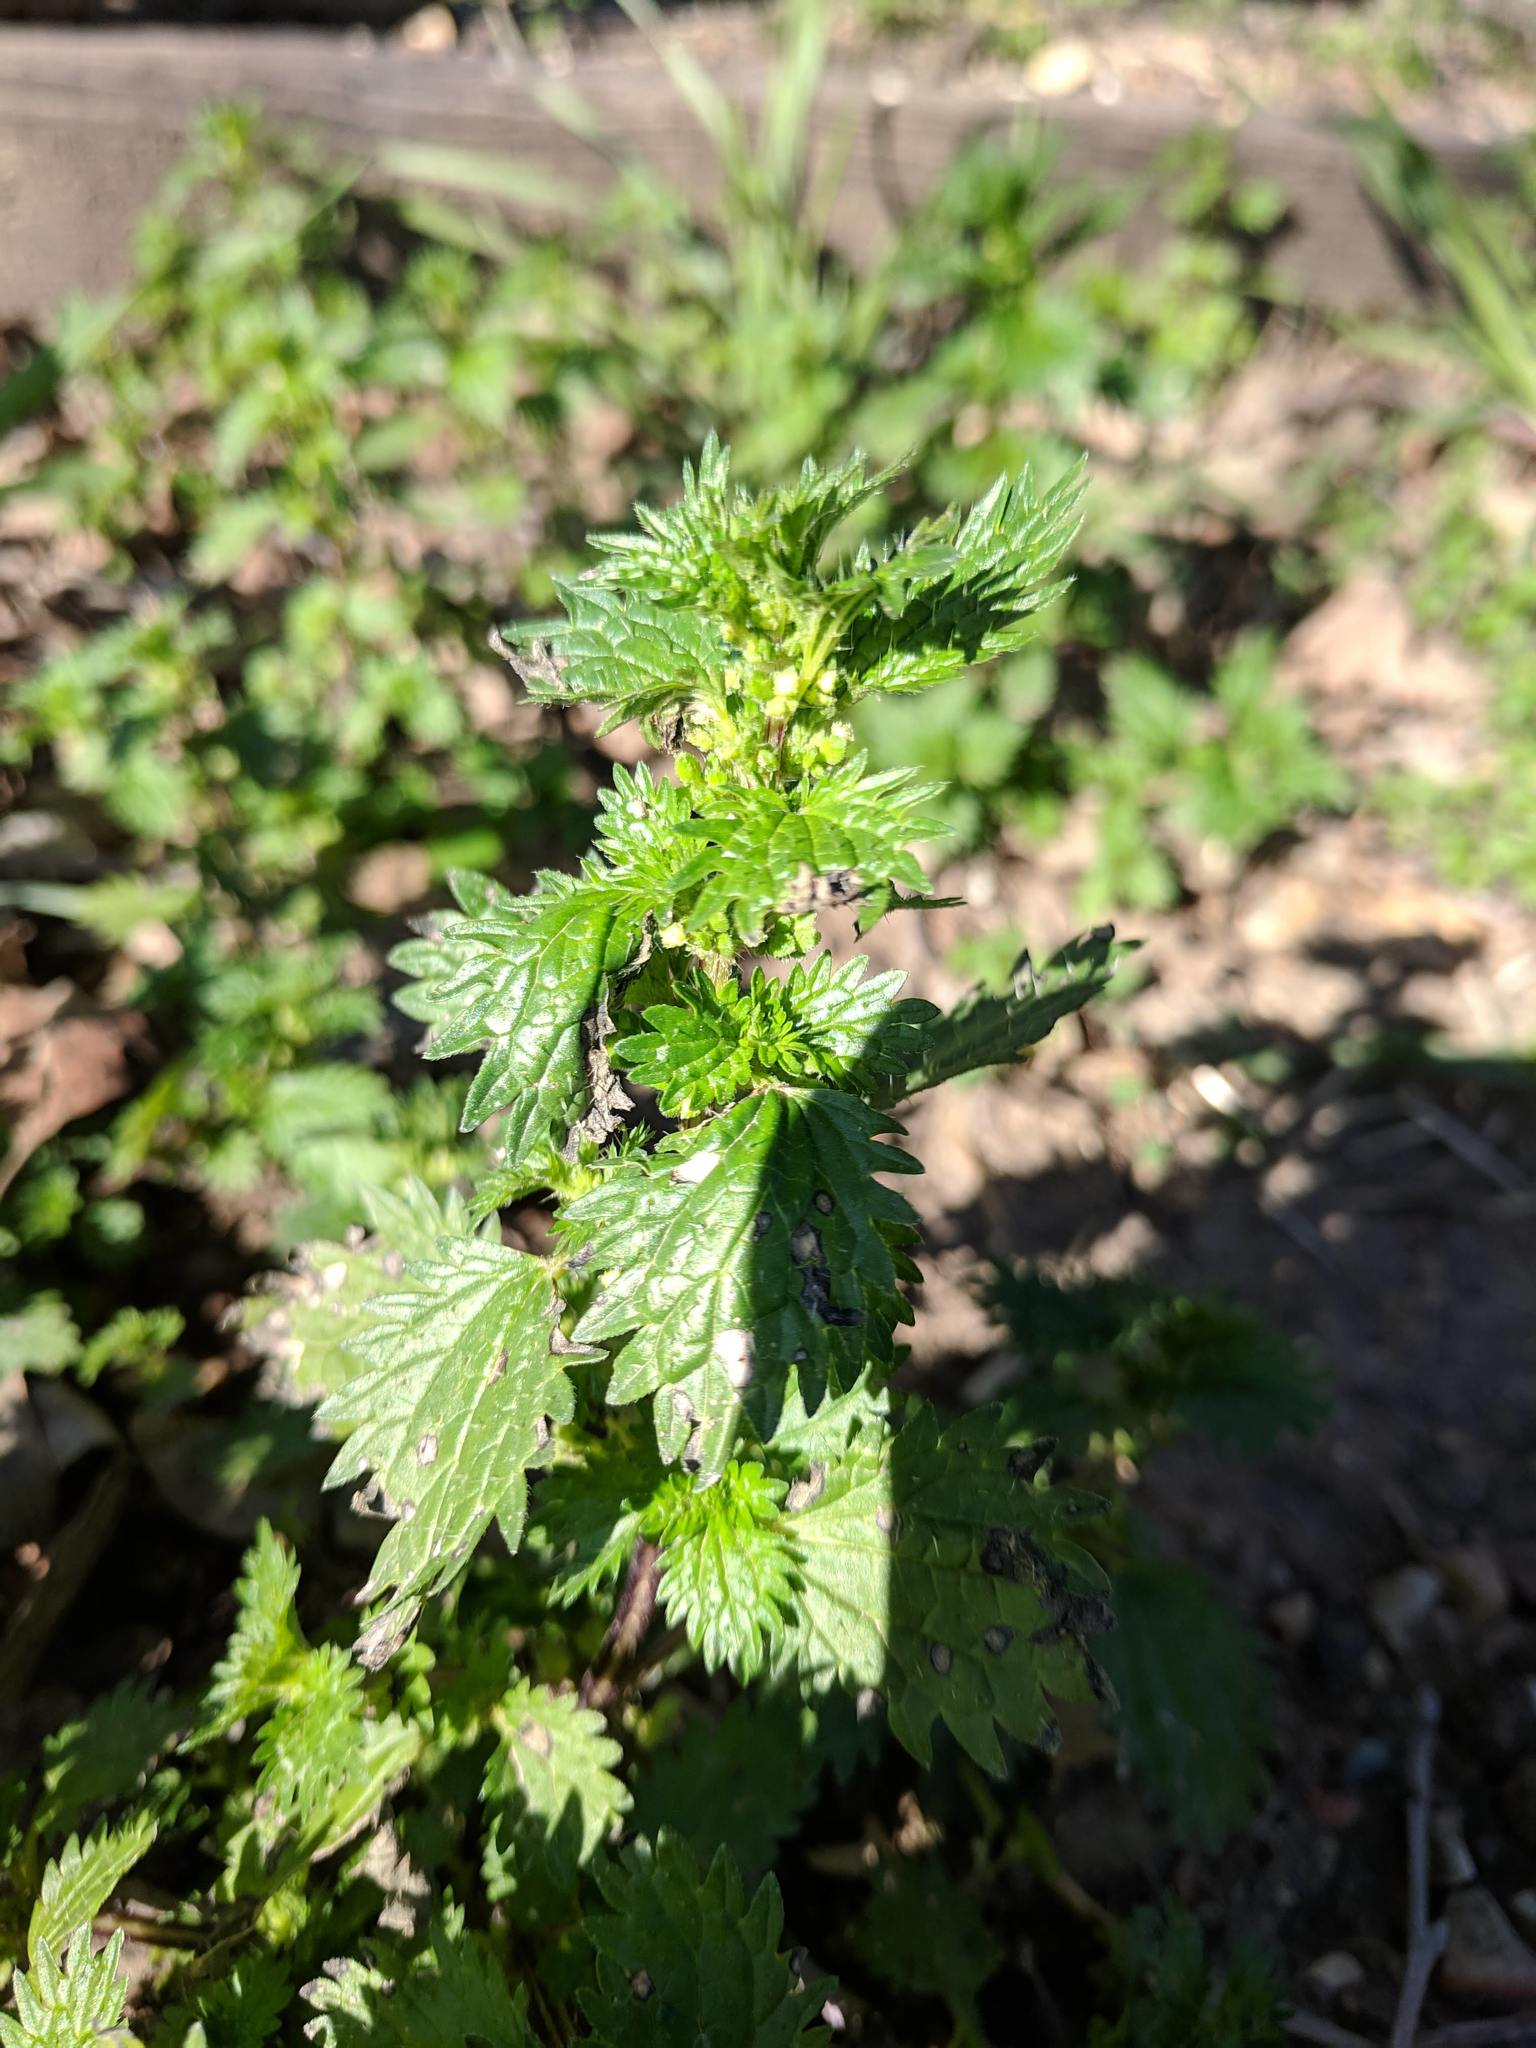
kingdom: Plantae
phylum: Tracheophyta
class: Magnoliopsida
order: Rosales
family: Urticaceae
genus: Urtica
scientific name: Urtica urens
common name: Dwarf nettle
